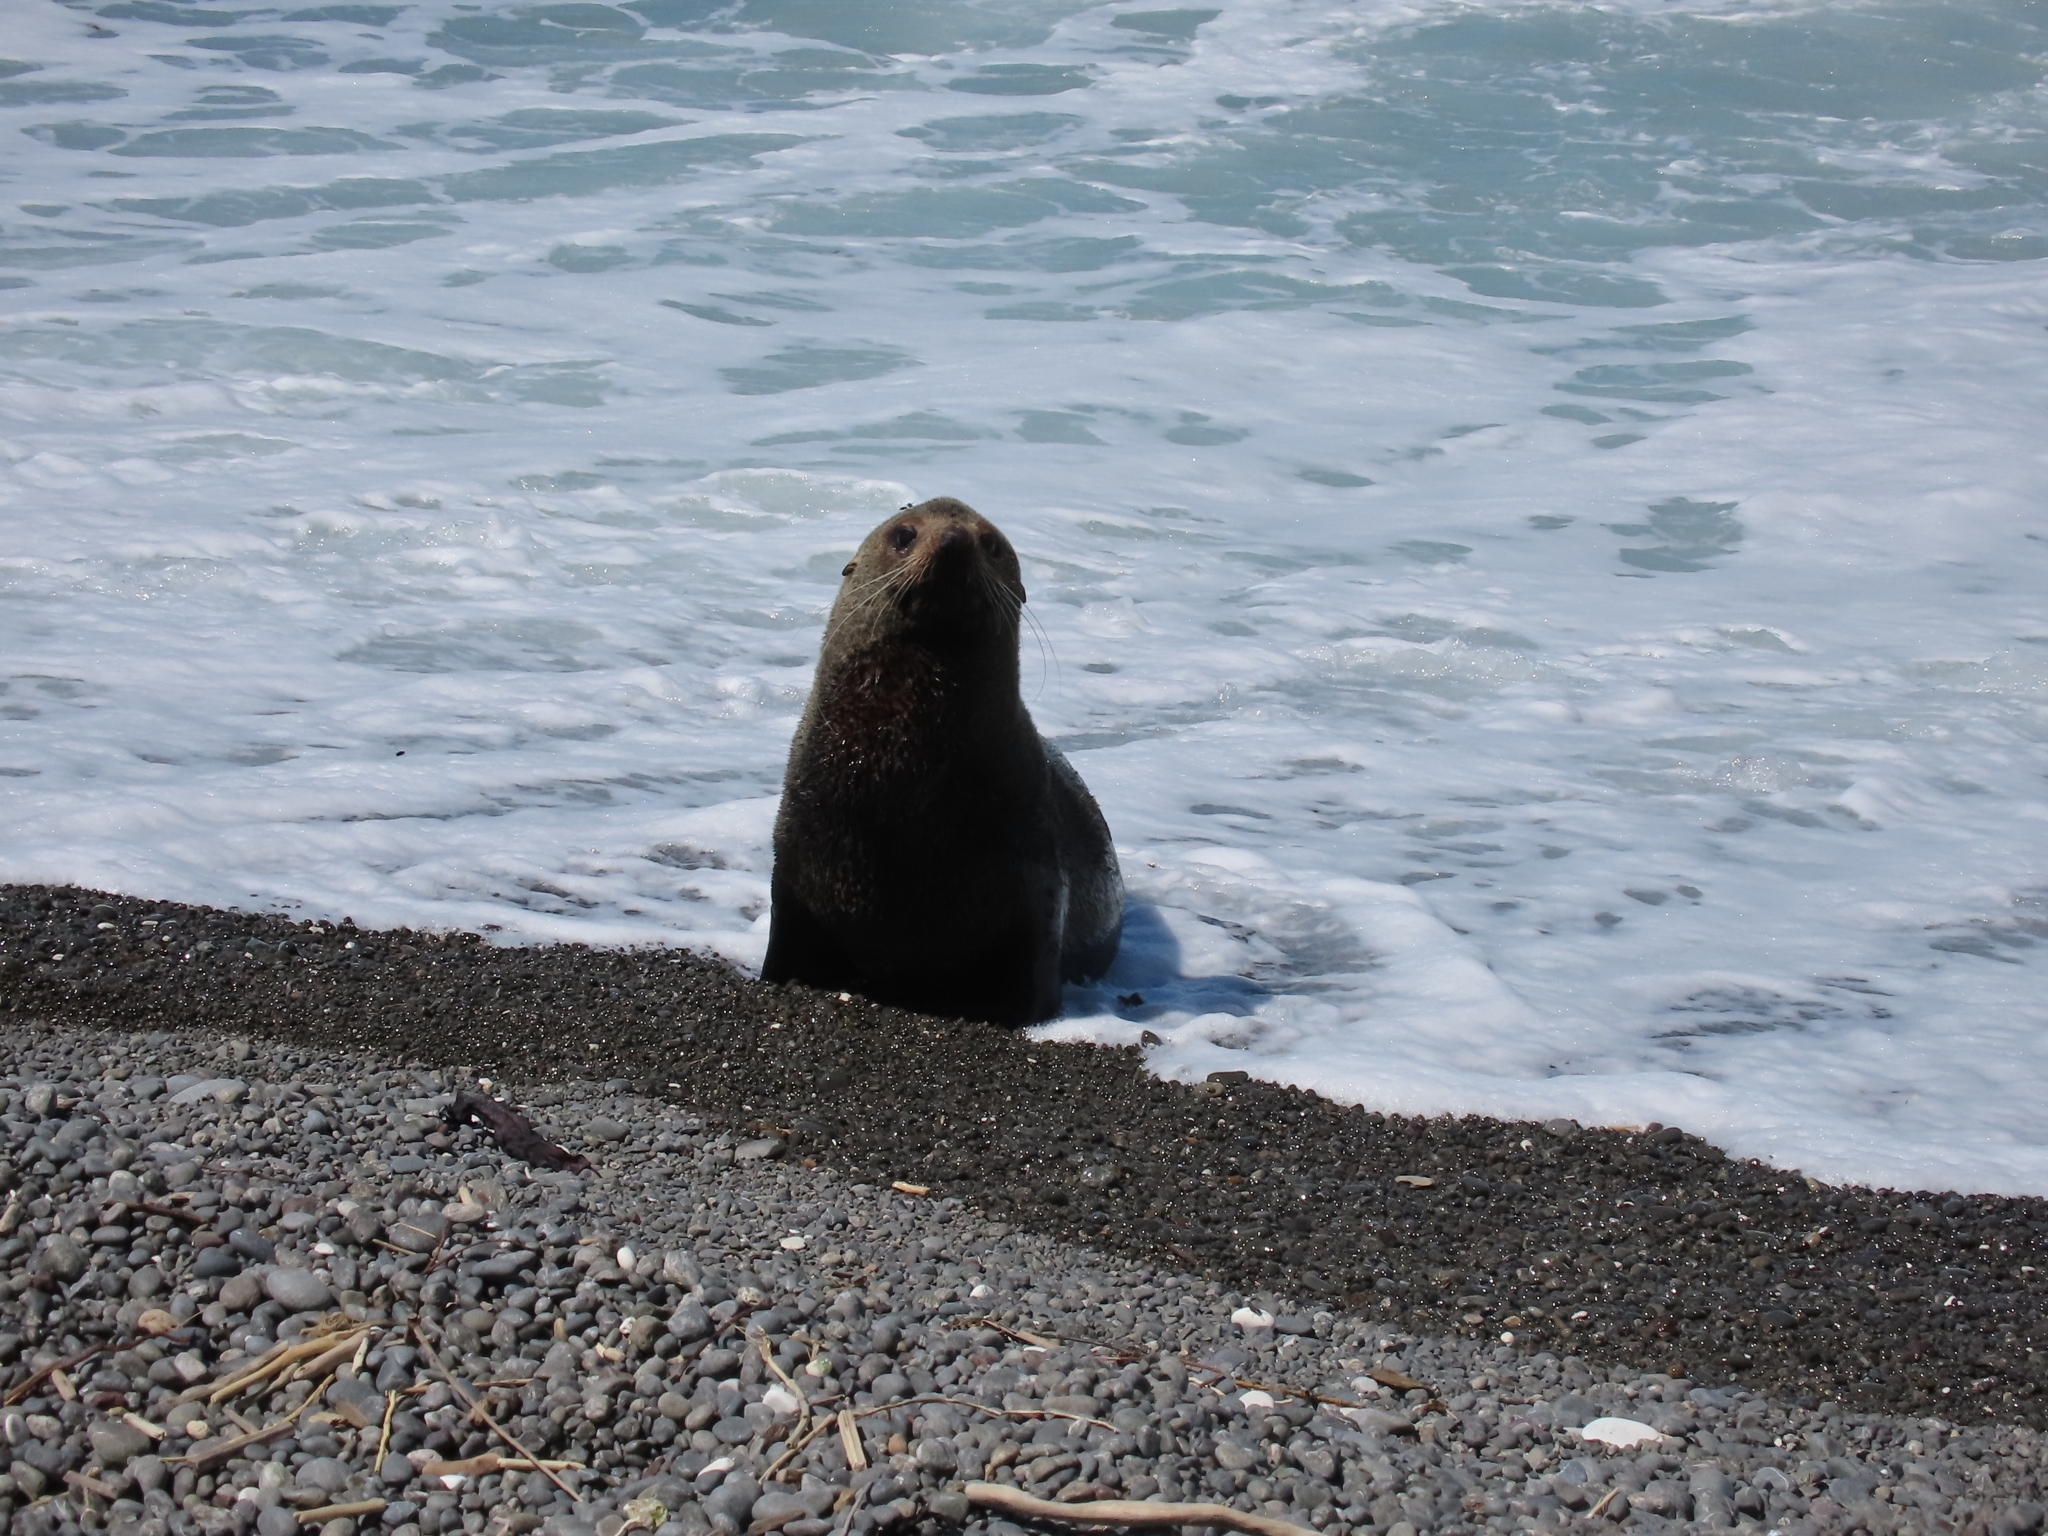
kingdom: Animalia
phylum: Chordata
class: Mammalia
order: Carnivora
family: Otariidae
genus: Arctocephalus
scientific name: Arctocephalus forsteri
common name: New zealand fur seal
